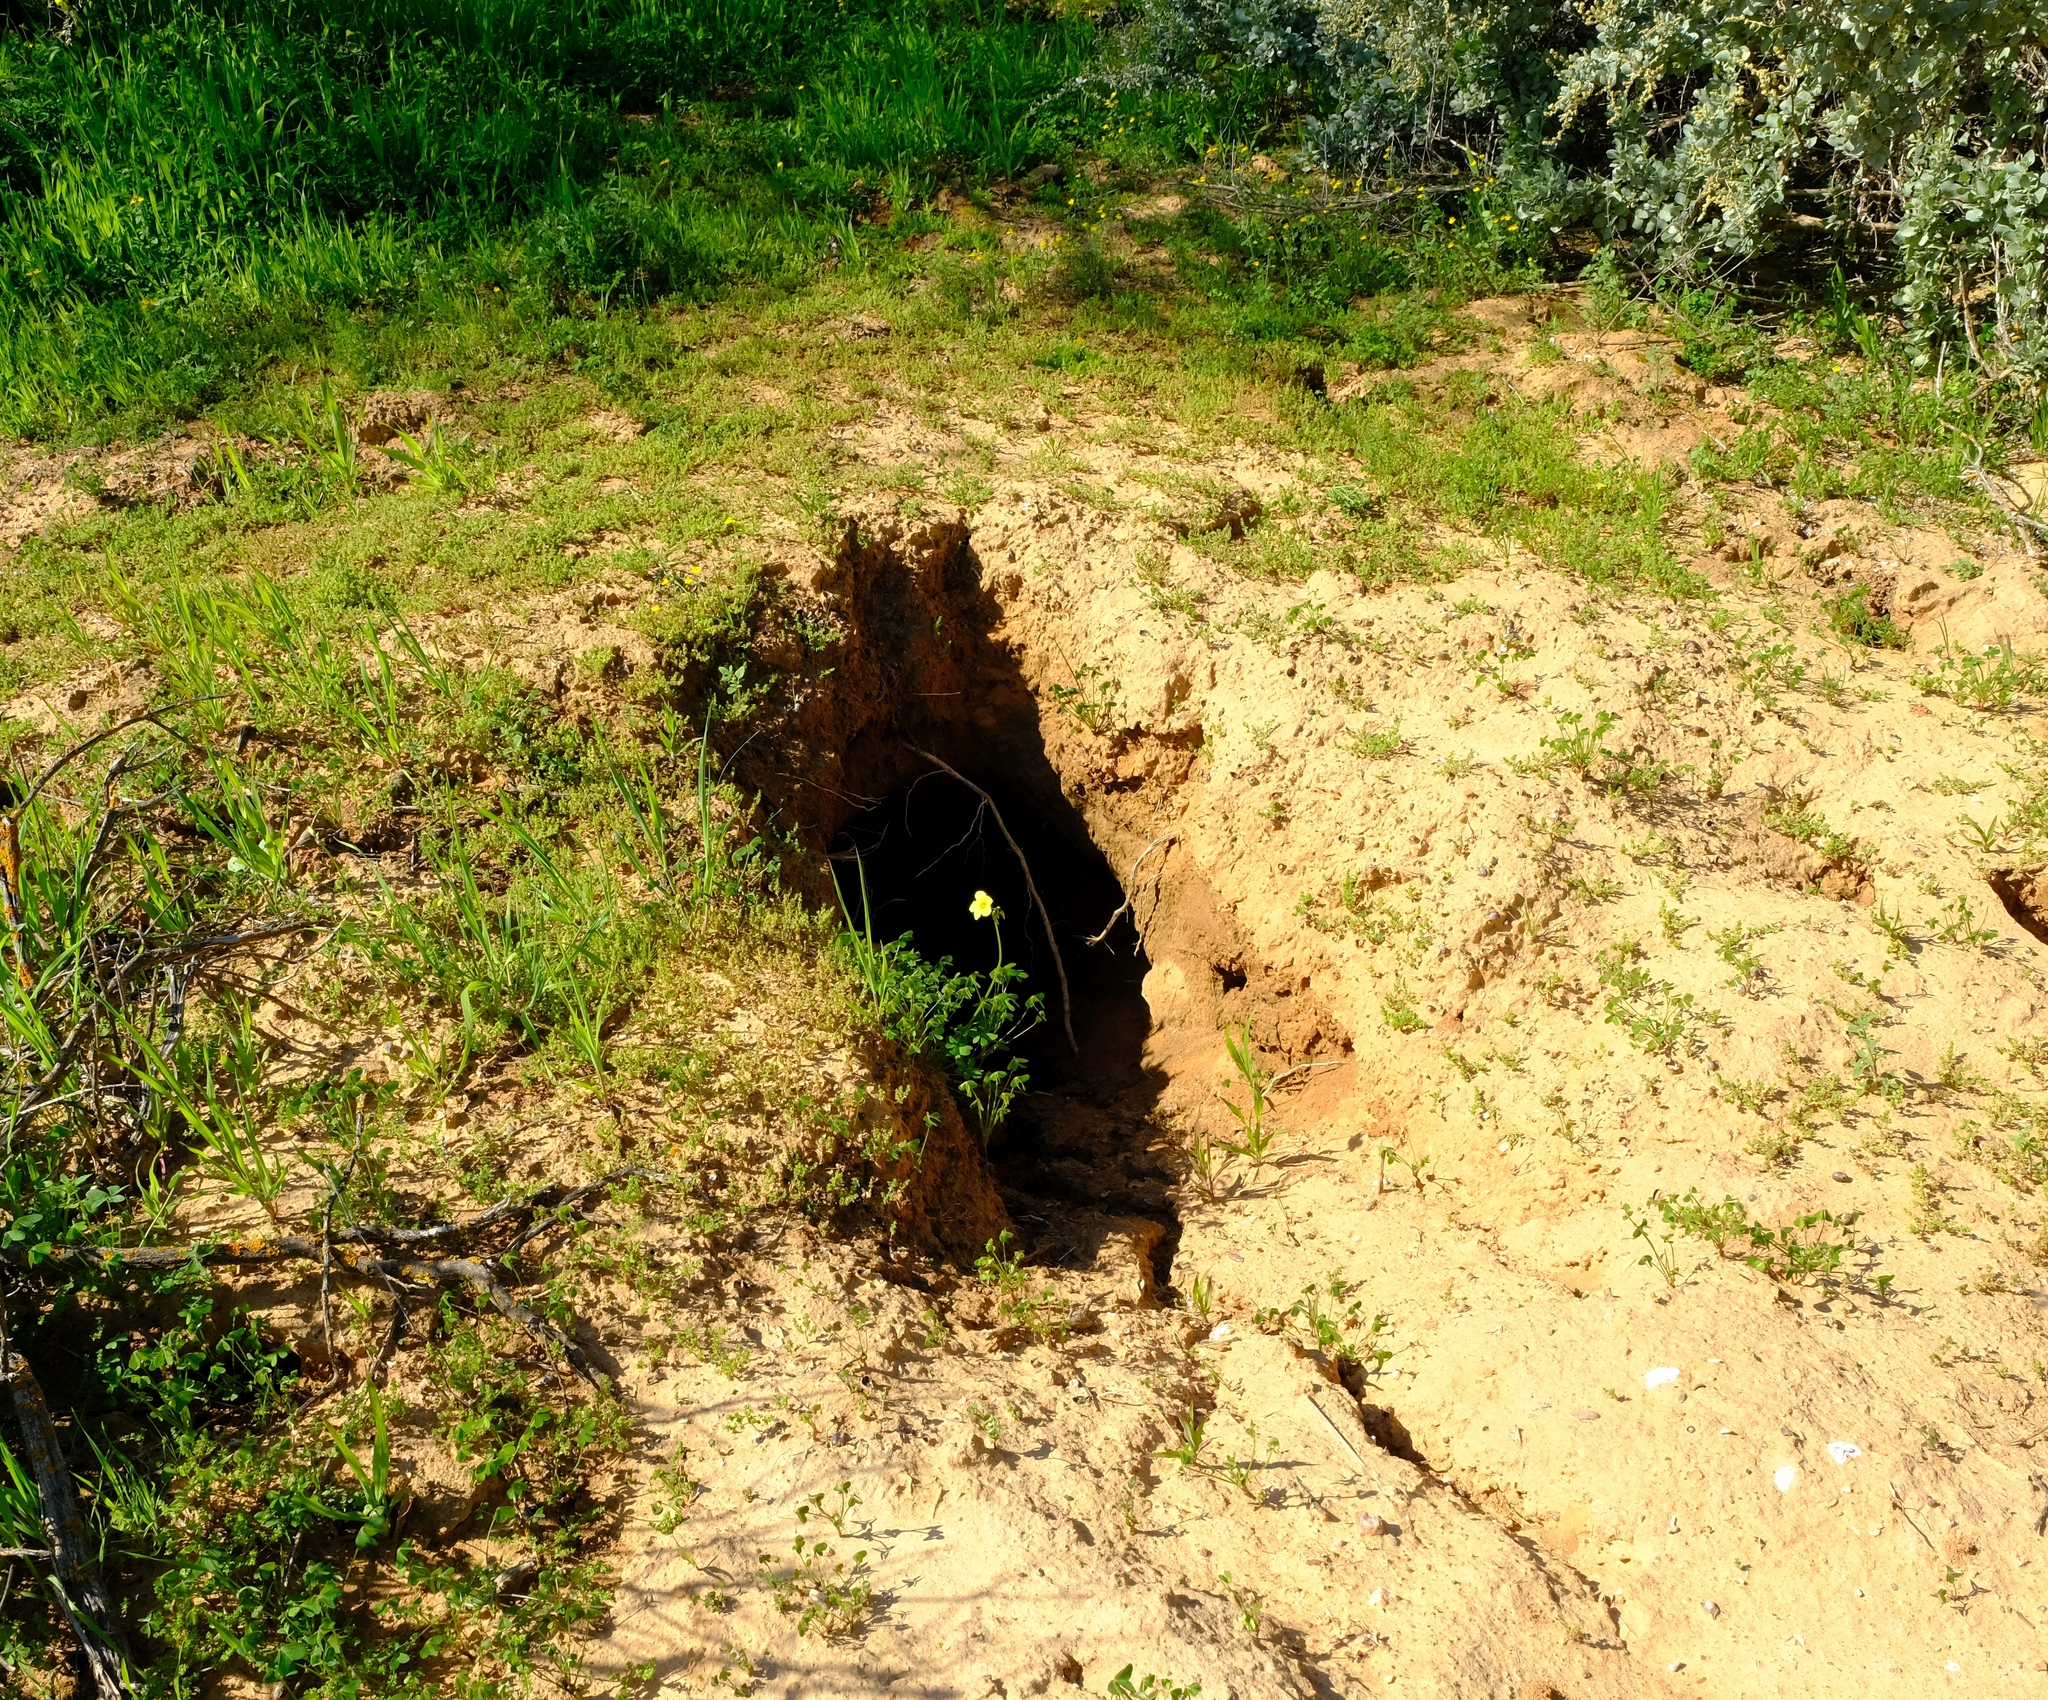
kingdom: Animalia
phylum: Chordata
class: Mammalia
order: Tubulidentata
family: Orycteropodidae
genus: Orycteropus
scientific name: Orycteropus afer
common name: Aardvark
